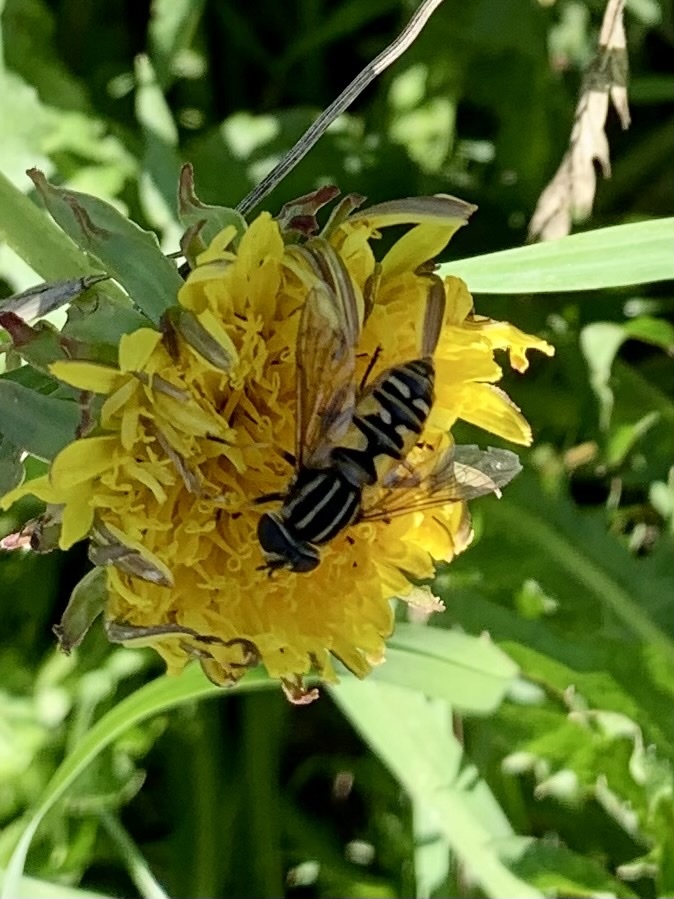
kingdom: Animalia
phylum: Arthropoda
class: Insecta
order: Diptera
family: Syrphidae
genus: Helophilus
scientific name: Helophilus pendulus
